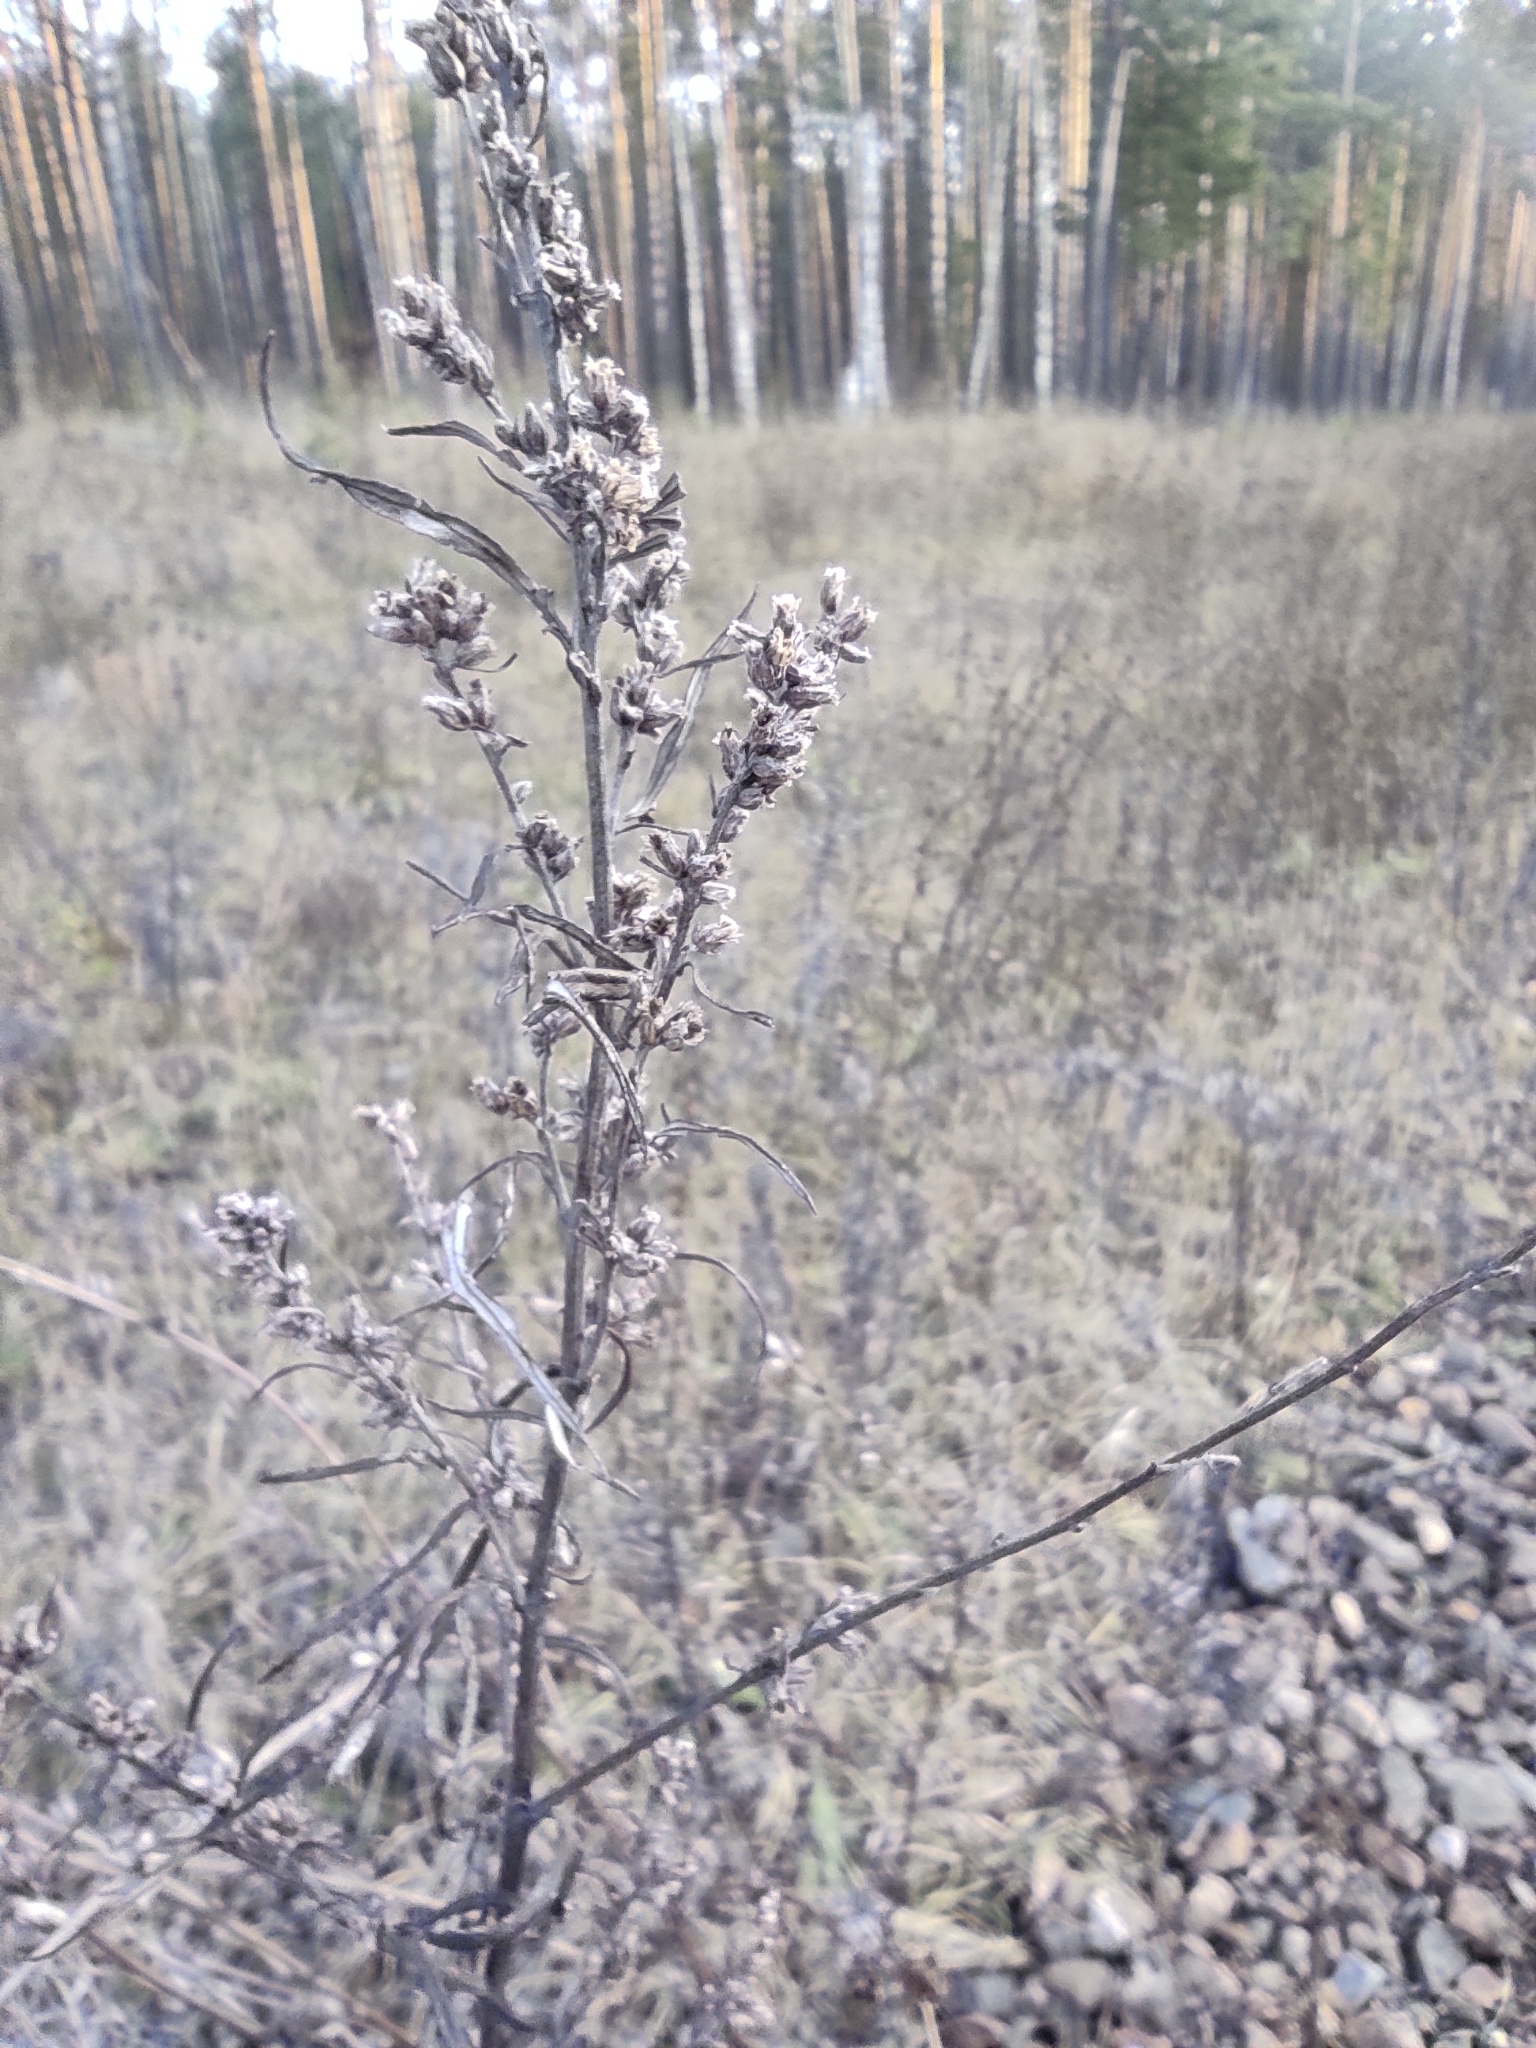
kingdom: Plantae
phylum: Tracheophyta
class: Magnoliopsida
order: Asterales
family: Asteraceae
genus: Artemisia
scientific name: Artemisia vulgaris
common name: Mugwort
